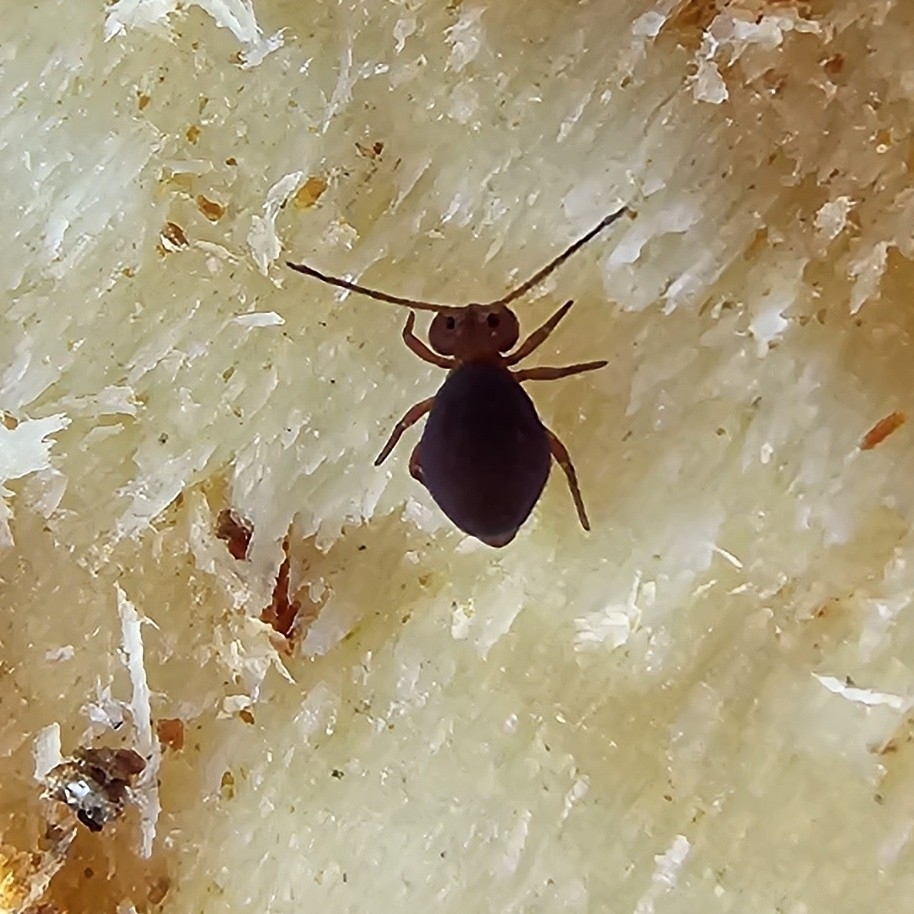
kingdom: Animalia
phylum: Arthropoda
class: Collembola
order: Symphypleona
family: Dicyrtomidae
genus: Dicyrtoma
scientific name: Dicyrtoma fusca
